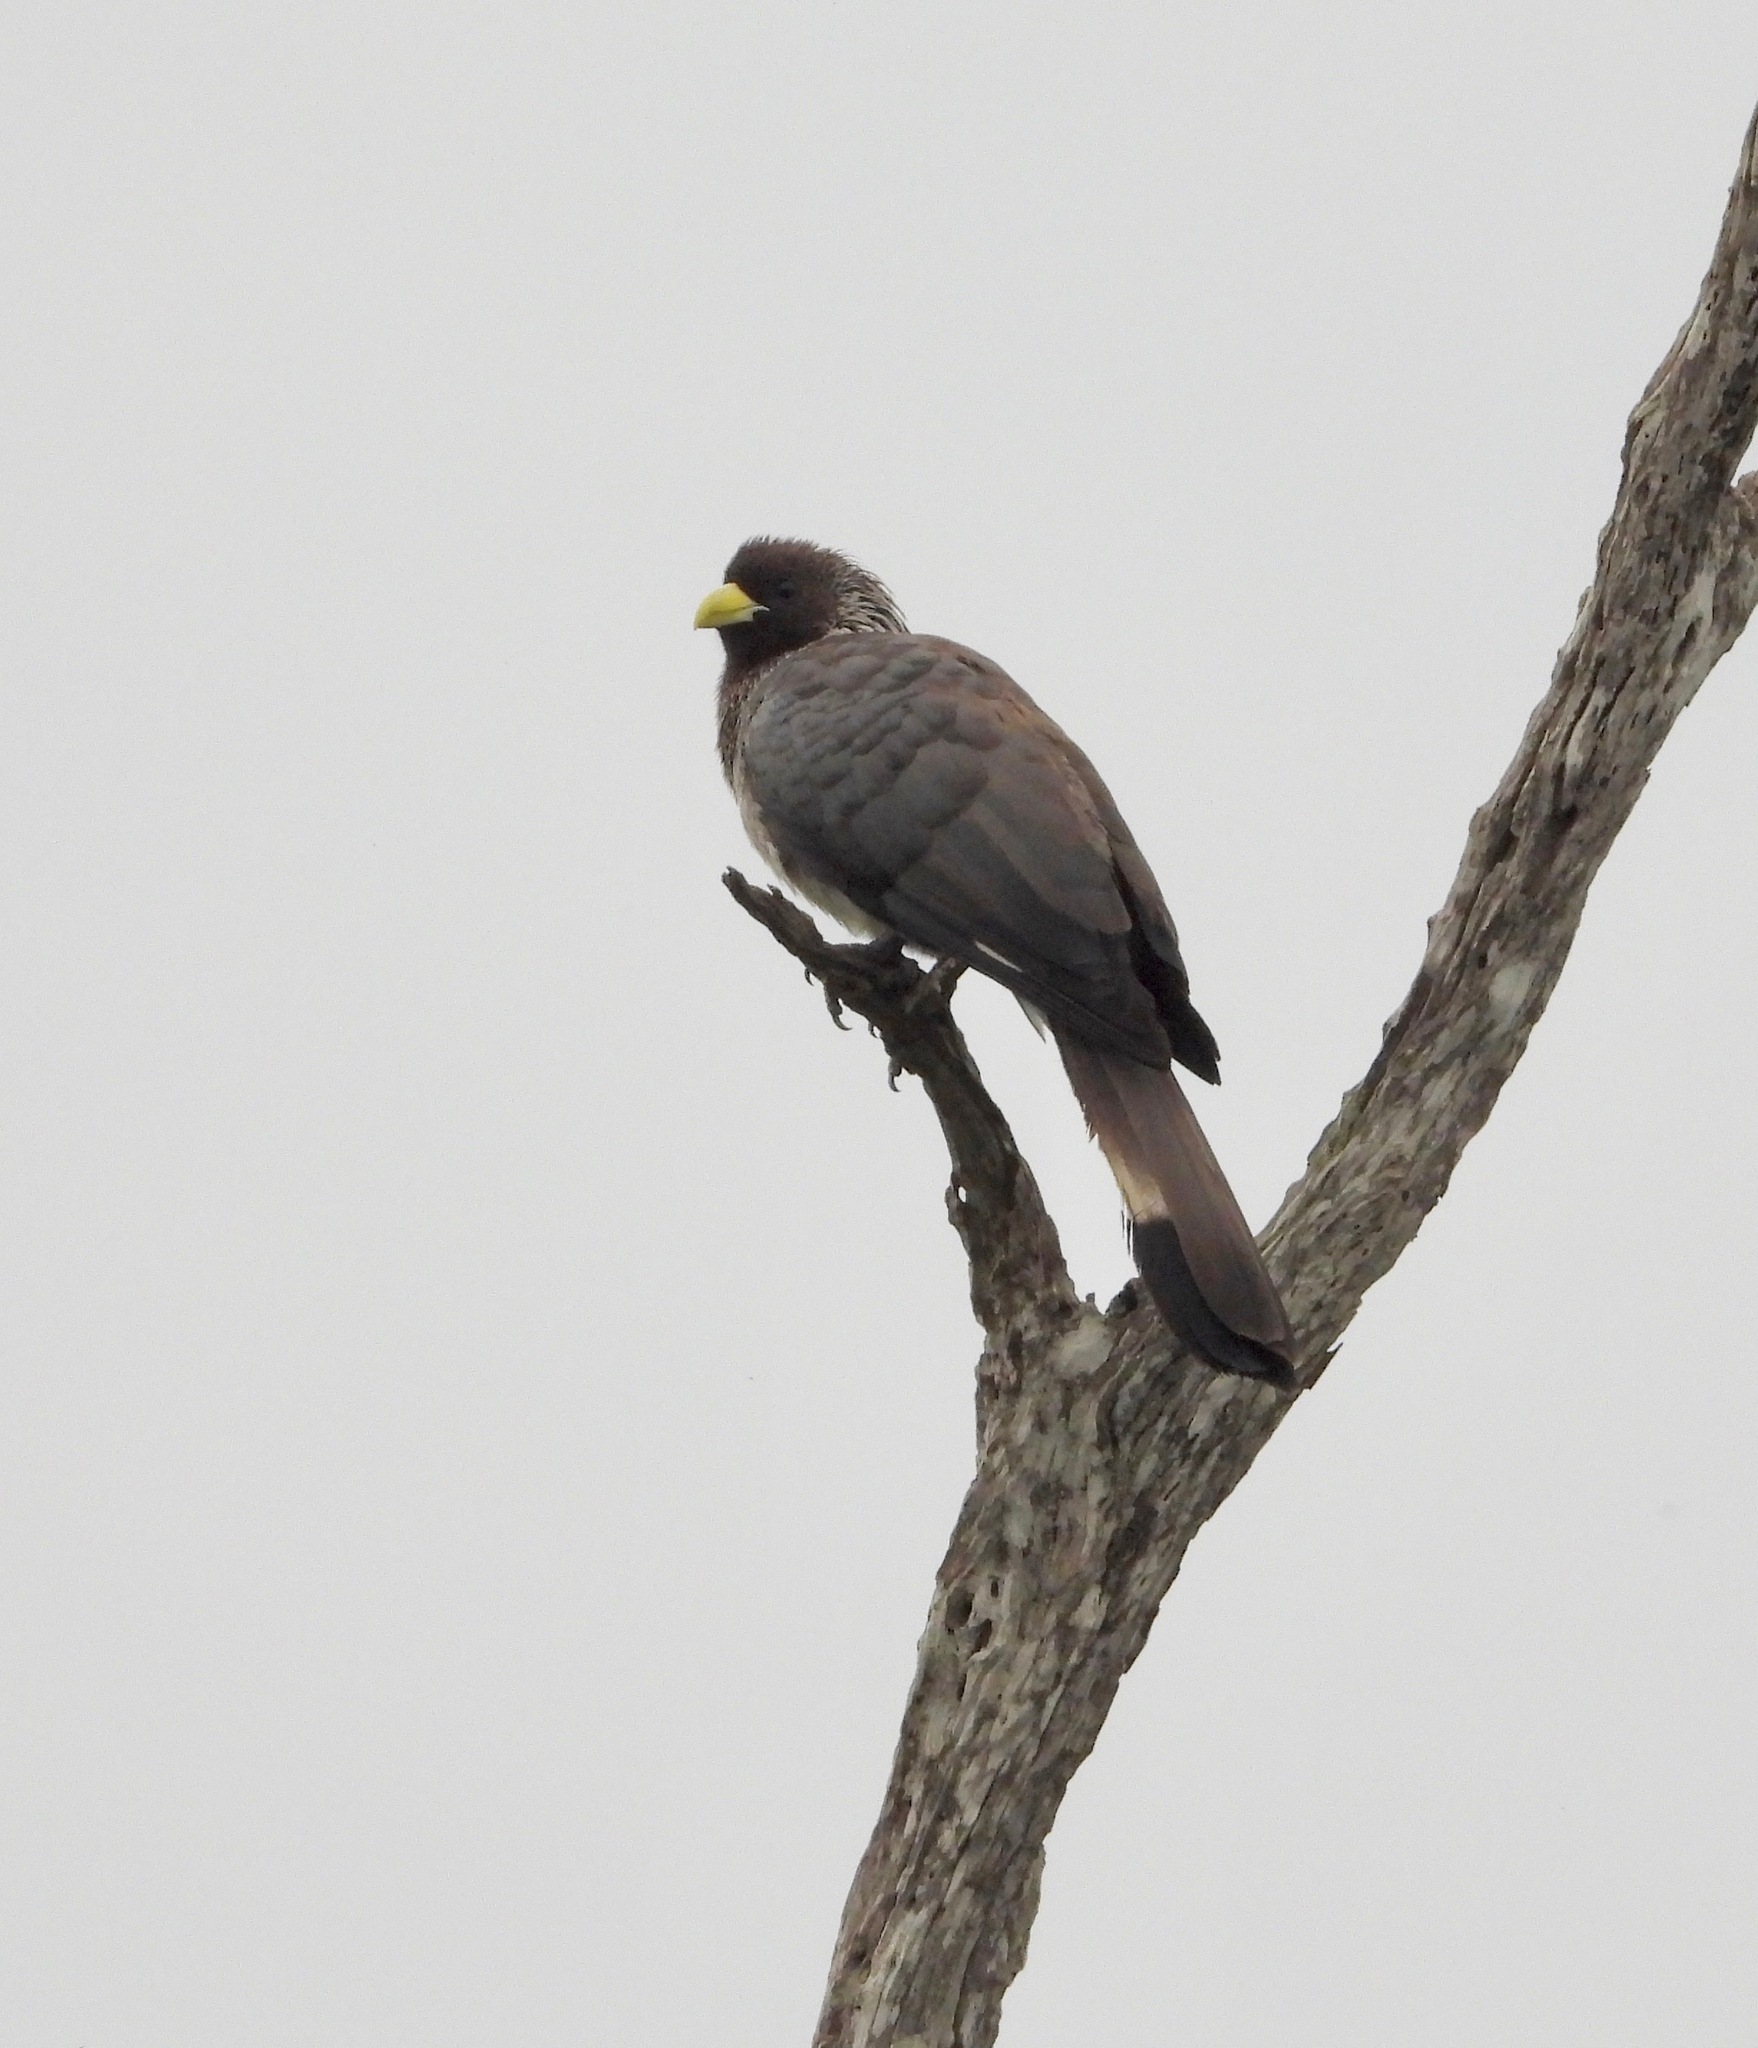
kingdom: Animalia
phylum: Chordata
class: Aves
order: Musophagiformes
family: Musophagidae
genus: Crinifer
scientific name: Crinifer zonurus
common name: Eastern plantain-eater
